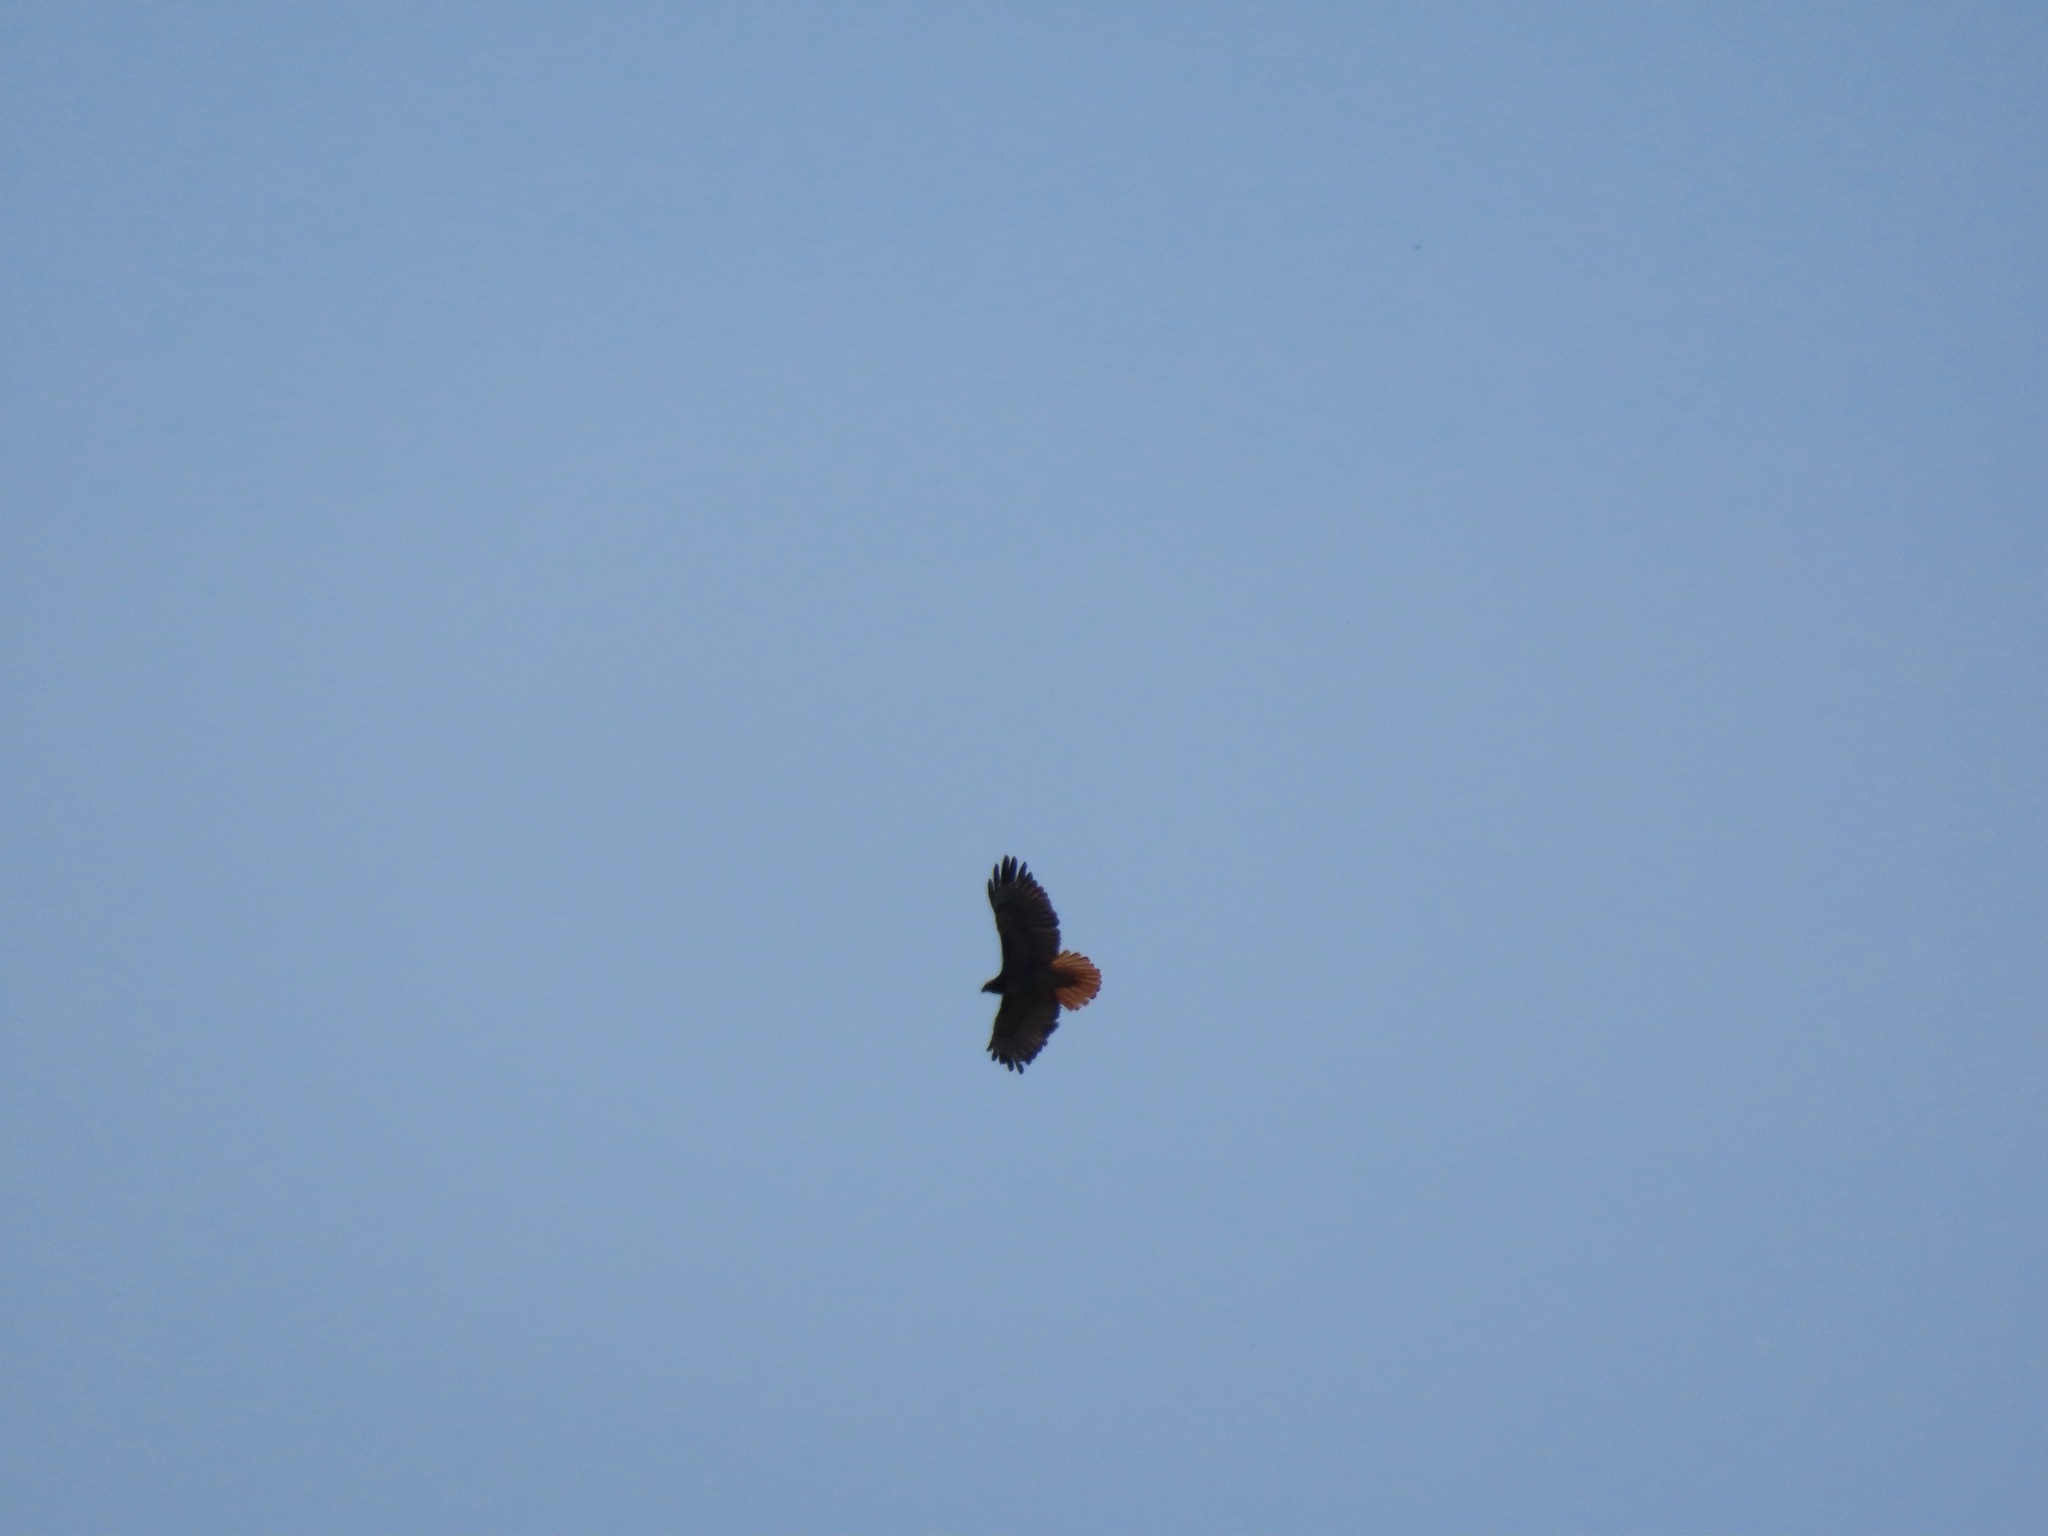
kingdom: Animalia
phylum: Chordata
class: Aves
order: Accipitriformes
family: Accipitridae
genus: Buteo
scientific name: Buteo jamaicensis
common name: Red-tailed hawk
